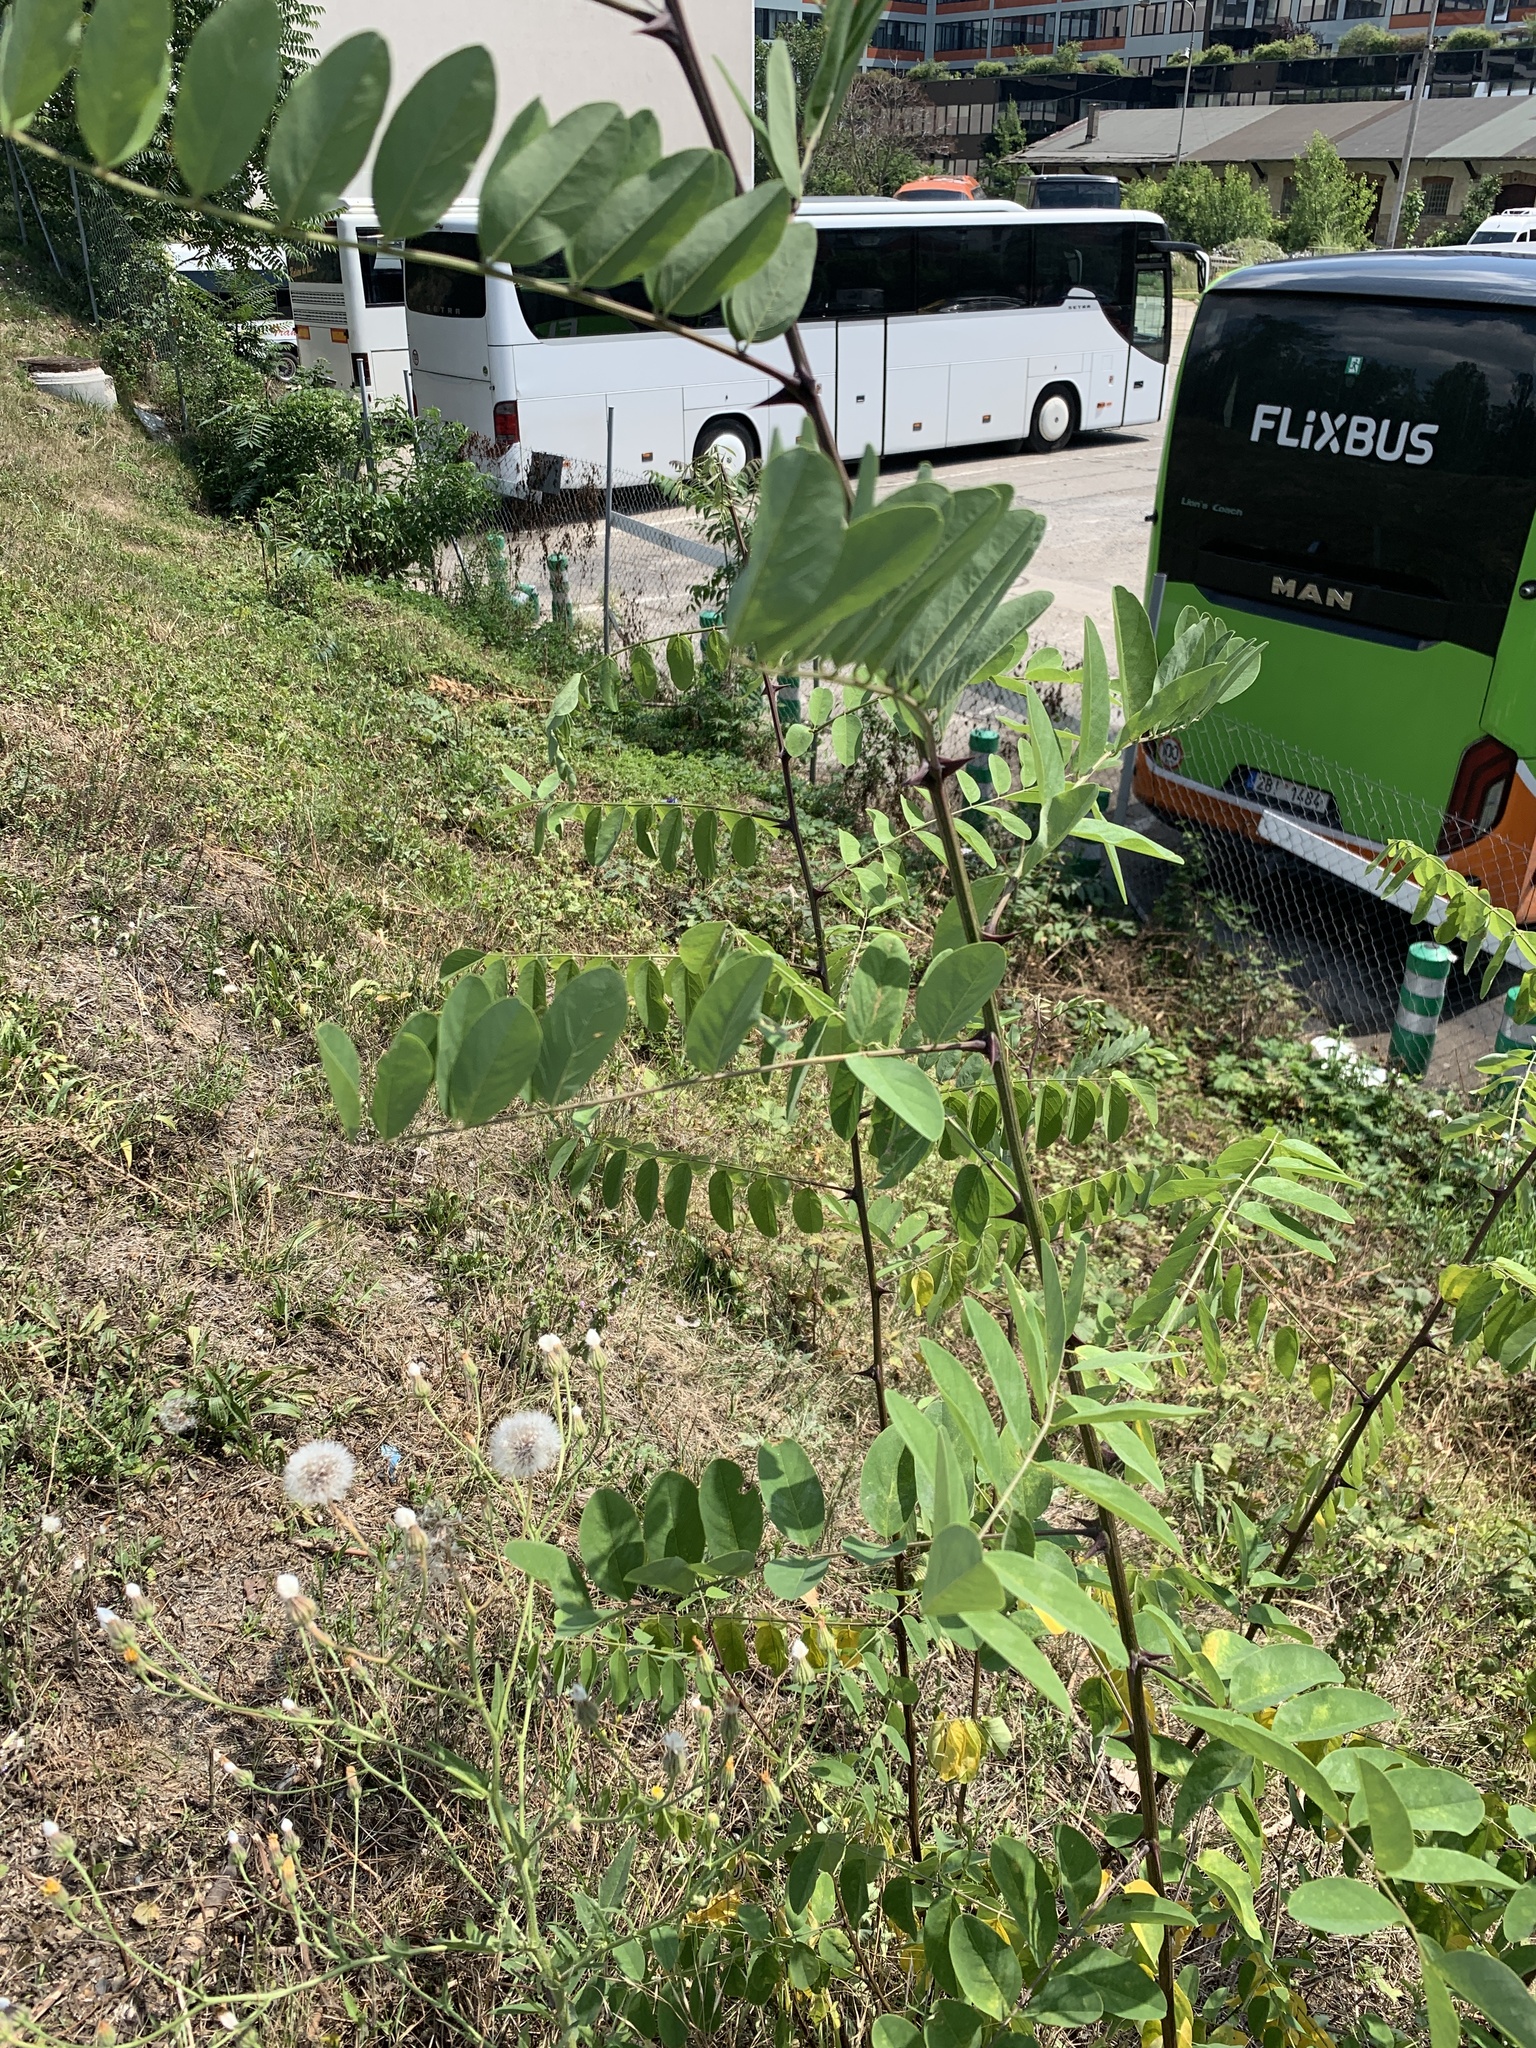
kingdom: Plantae
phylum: Tracheophyta
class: Magnoliopsida
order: Fabales
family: Fabaceae
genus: Robinia
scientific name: Robinia pseudoacacia
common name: Black locust
